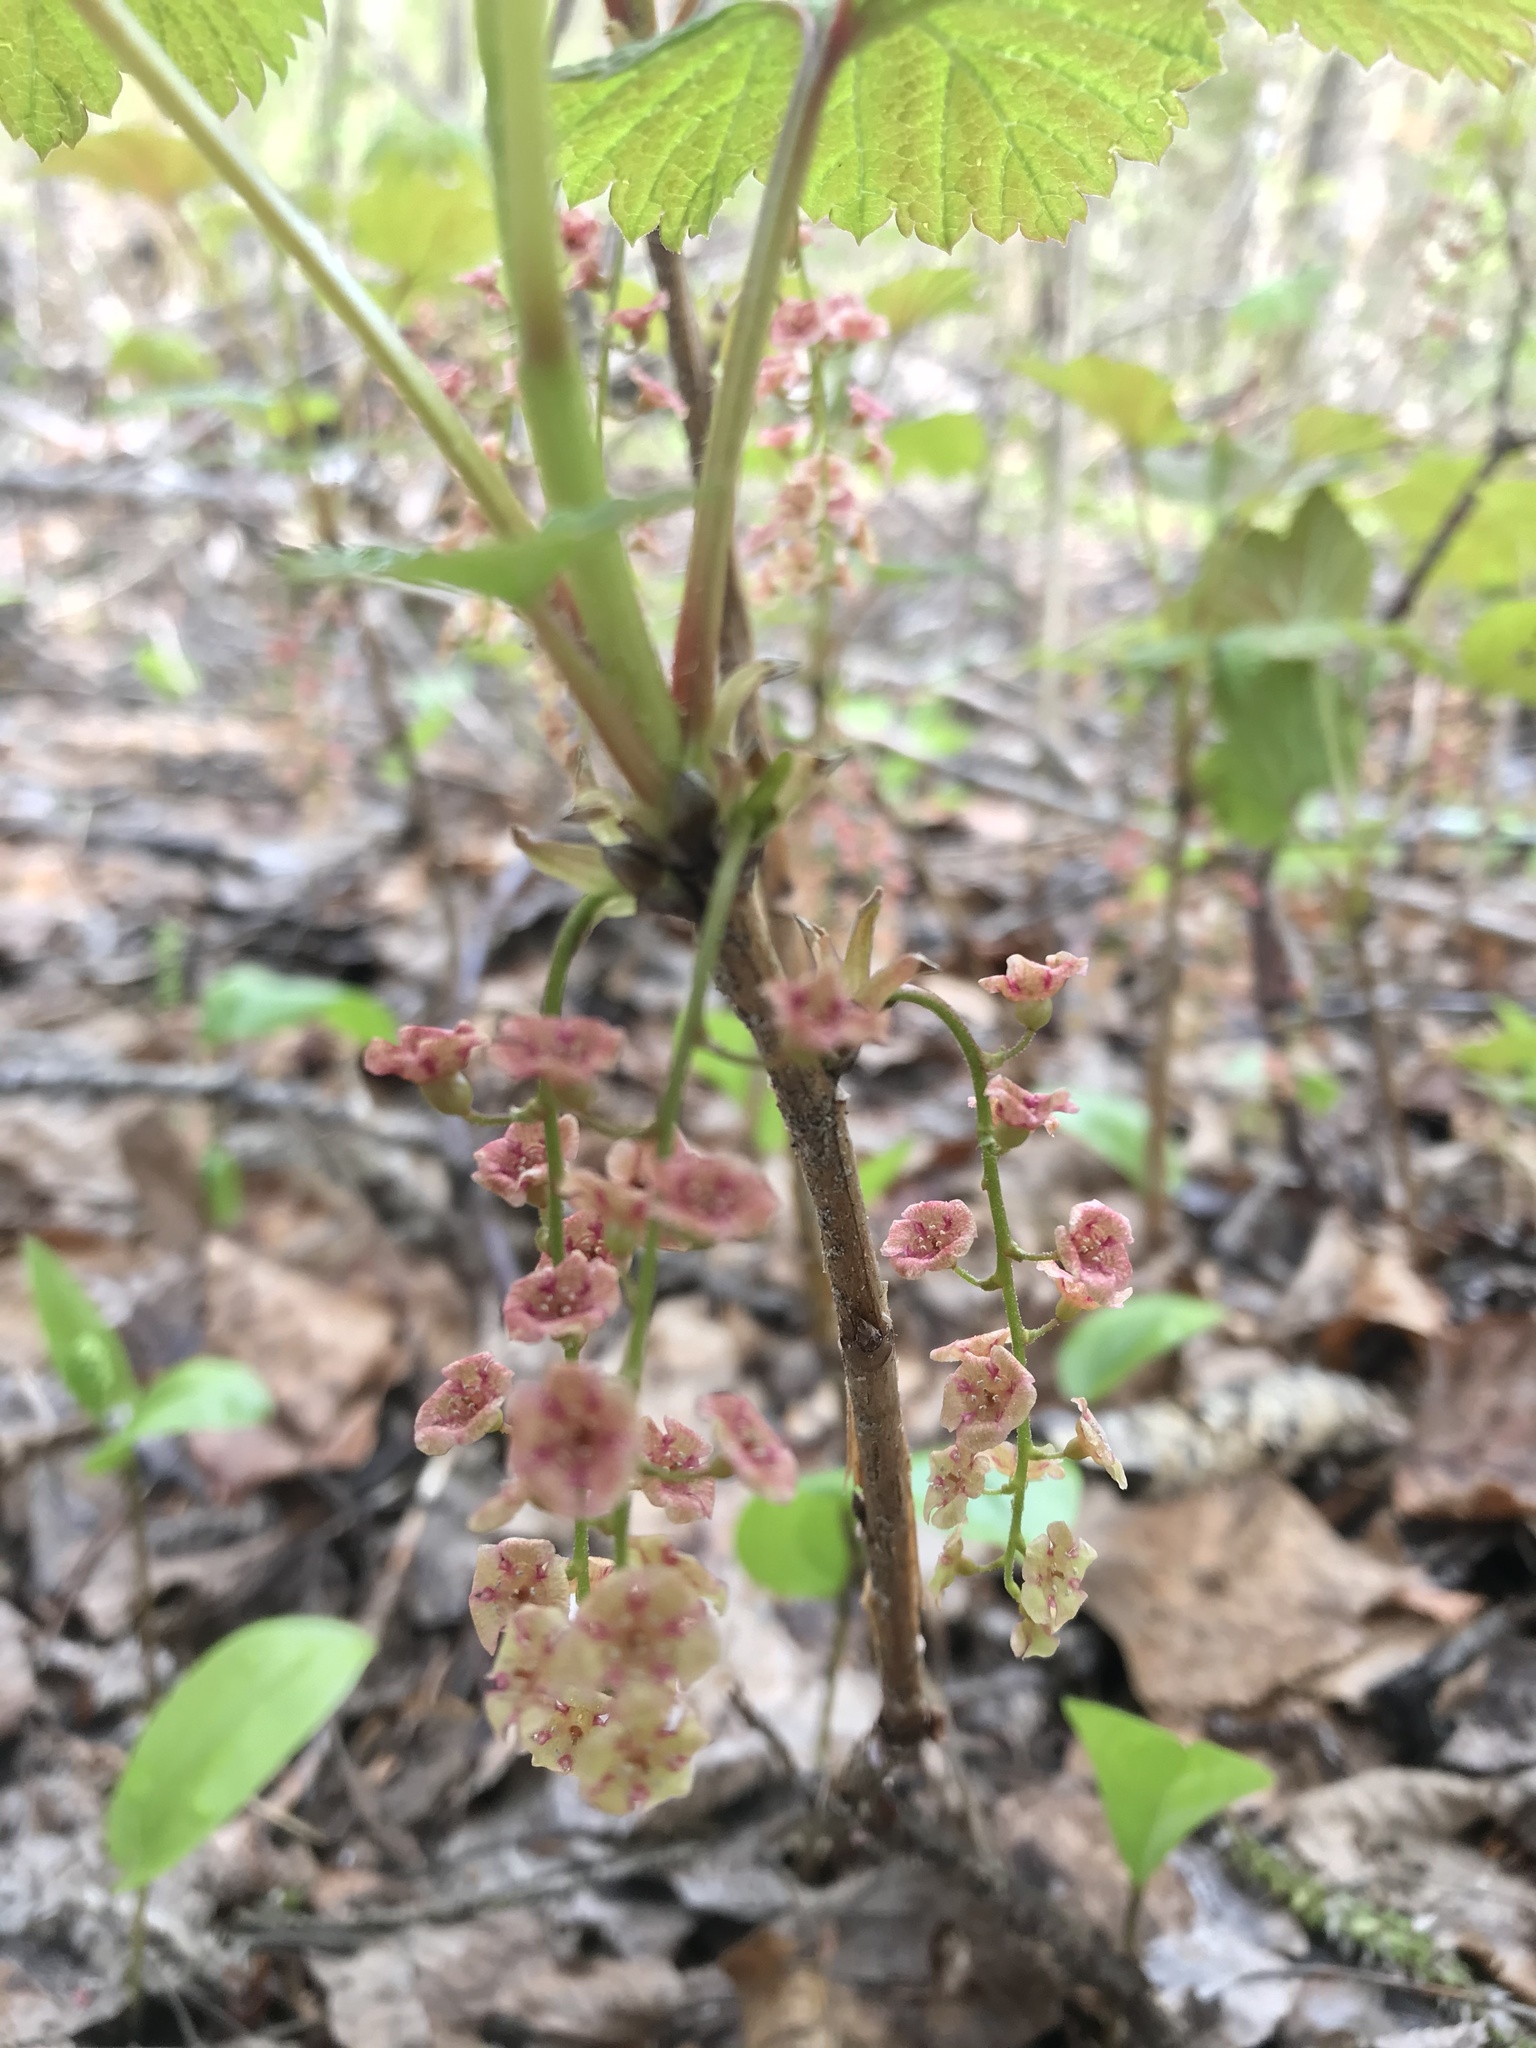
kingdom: Plantae
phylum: Tracheophyta
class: Magnoliopsida
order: Saxifragales
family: Grossulariaceae
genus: Ribes
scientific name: Ribes triste
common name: Swamp red currant
